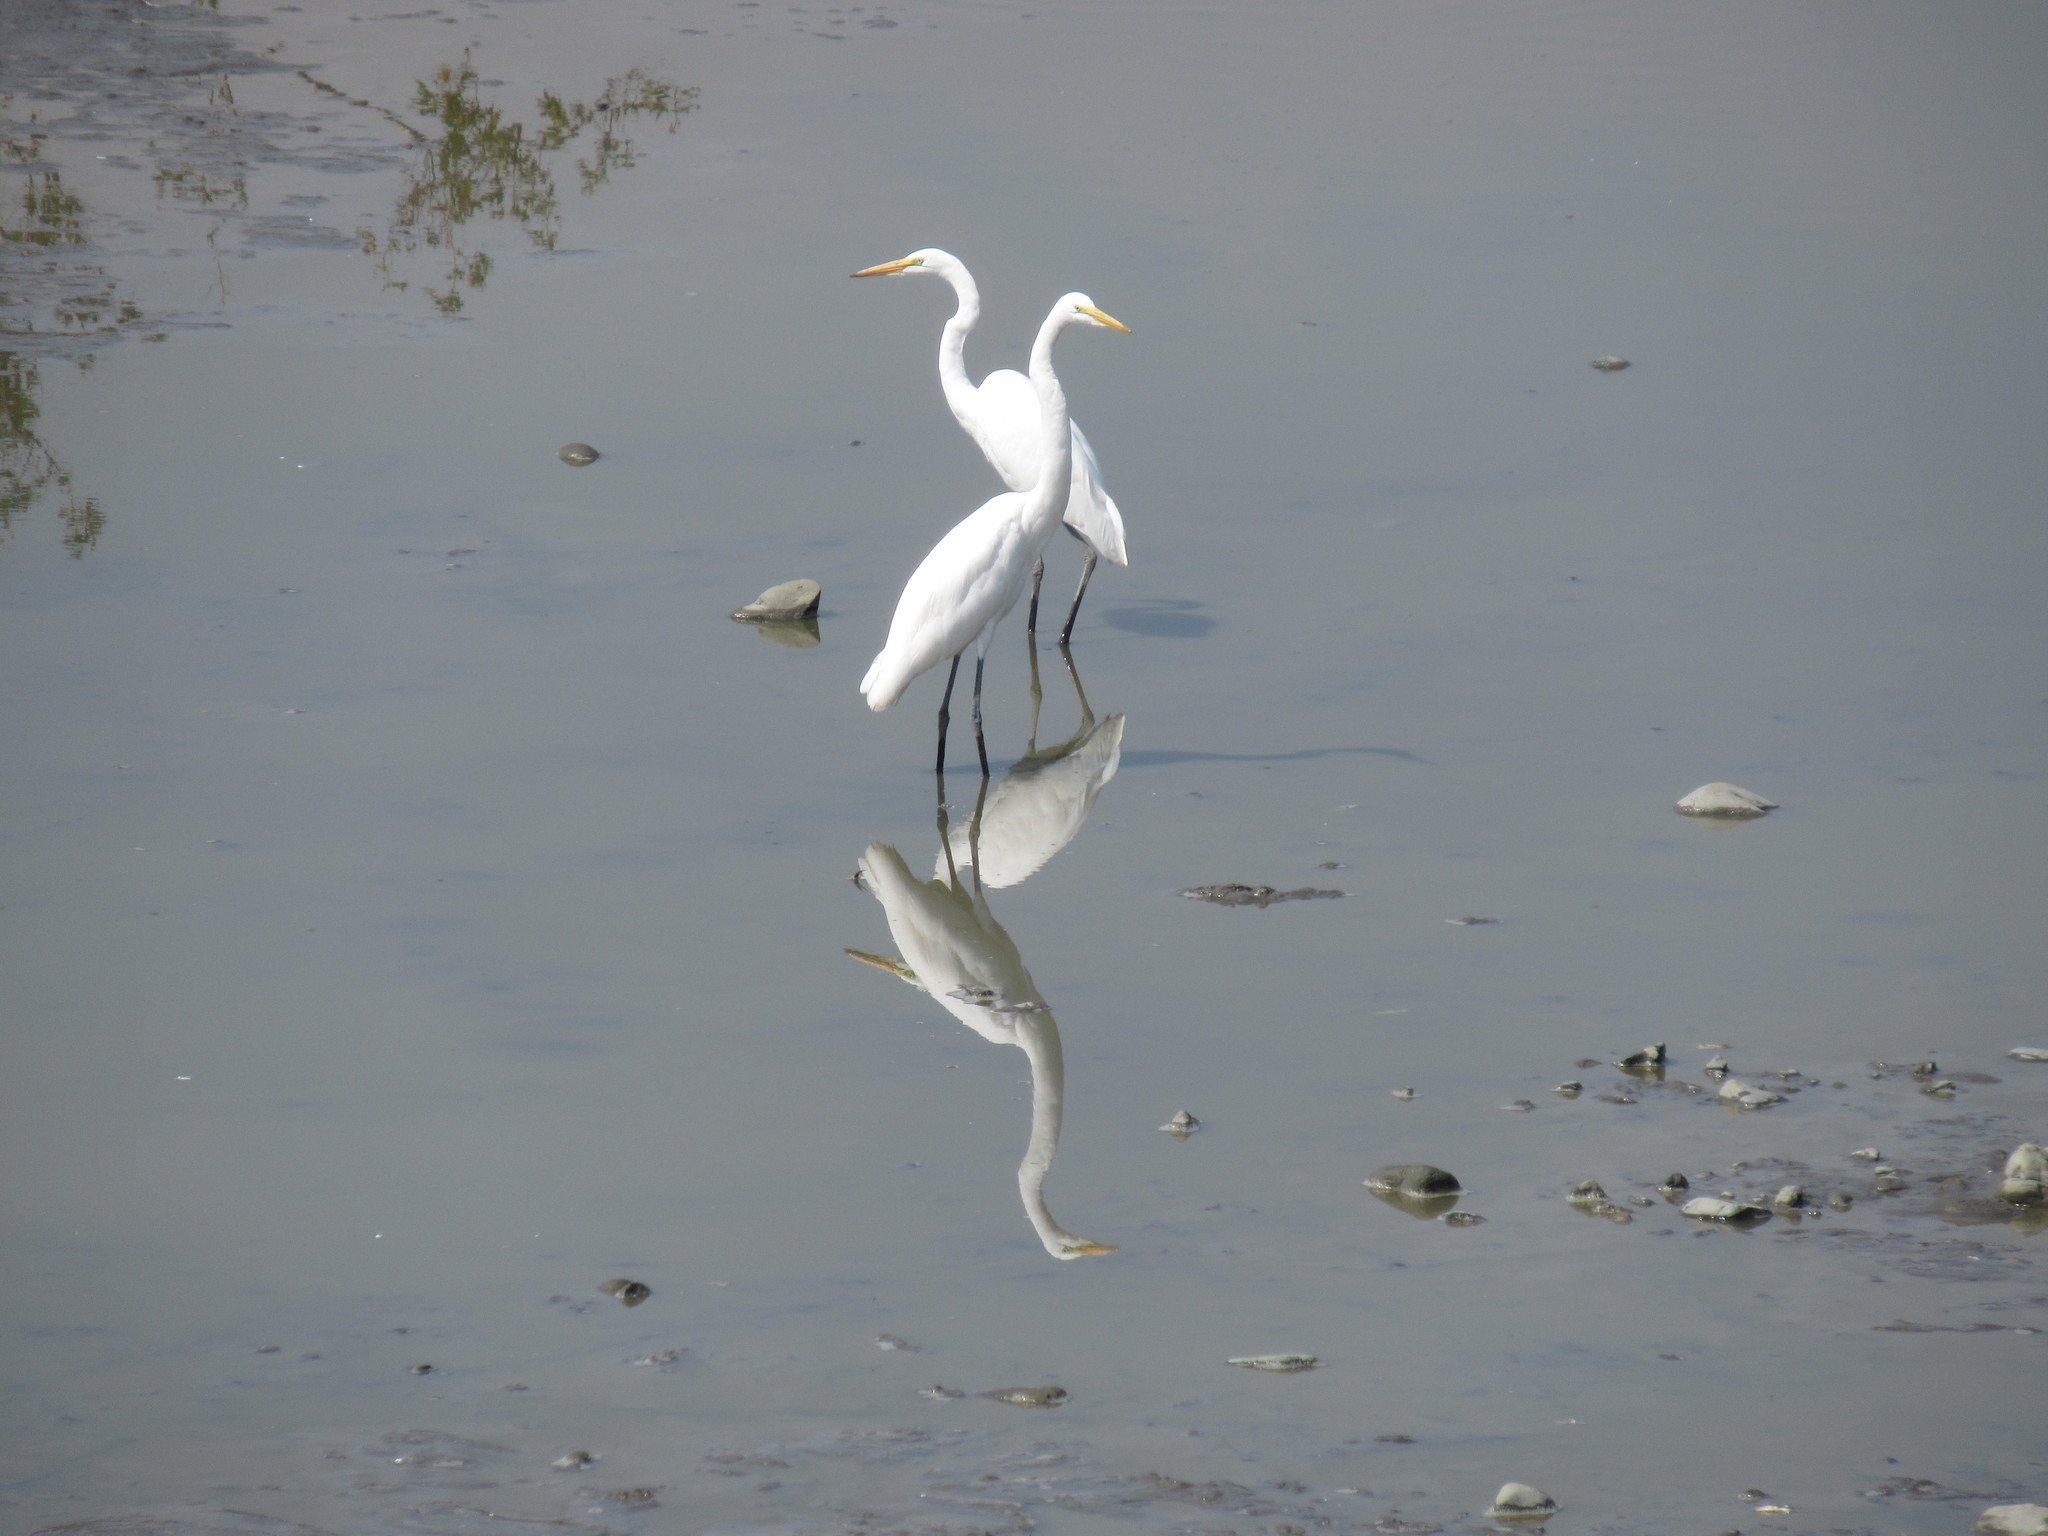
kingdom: Animalia
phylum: Chordata
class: Aves
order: Pelecaniformes
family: Ardeidae
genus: Ardea
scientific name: Ardea alba
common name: Great egret
